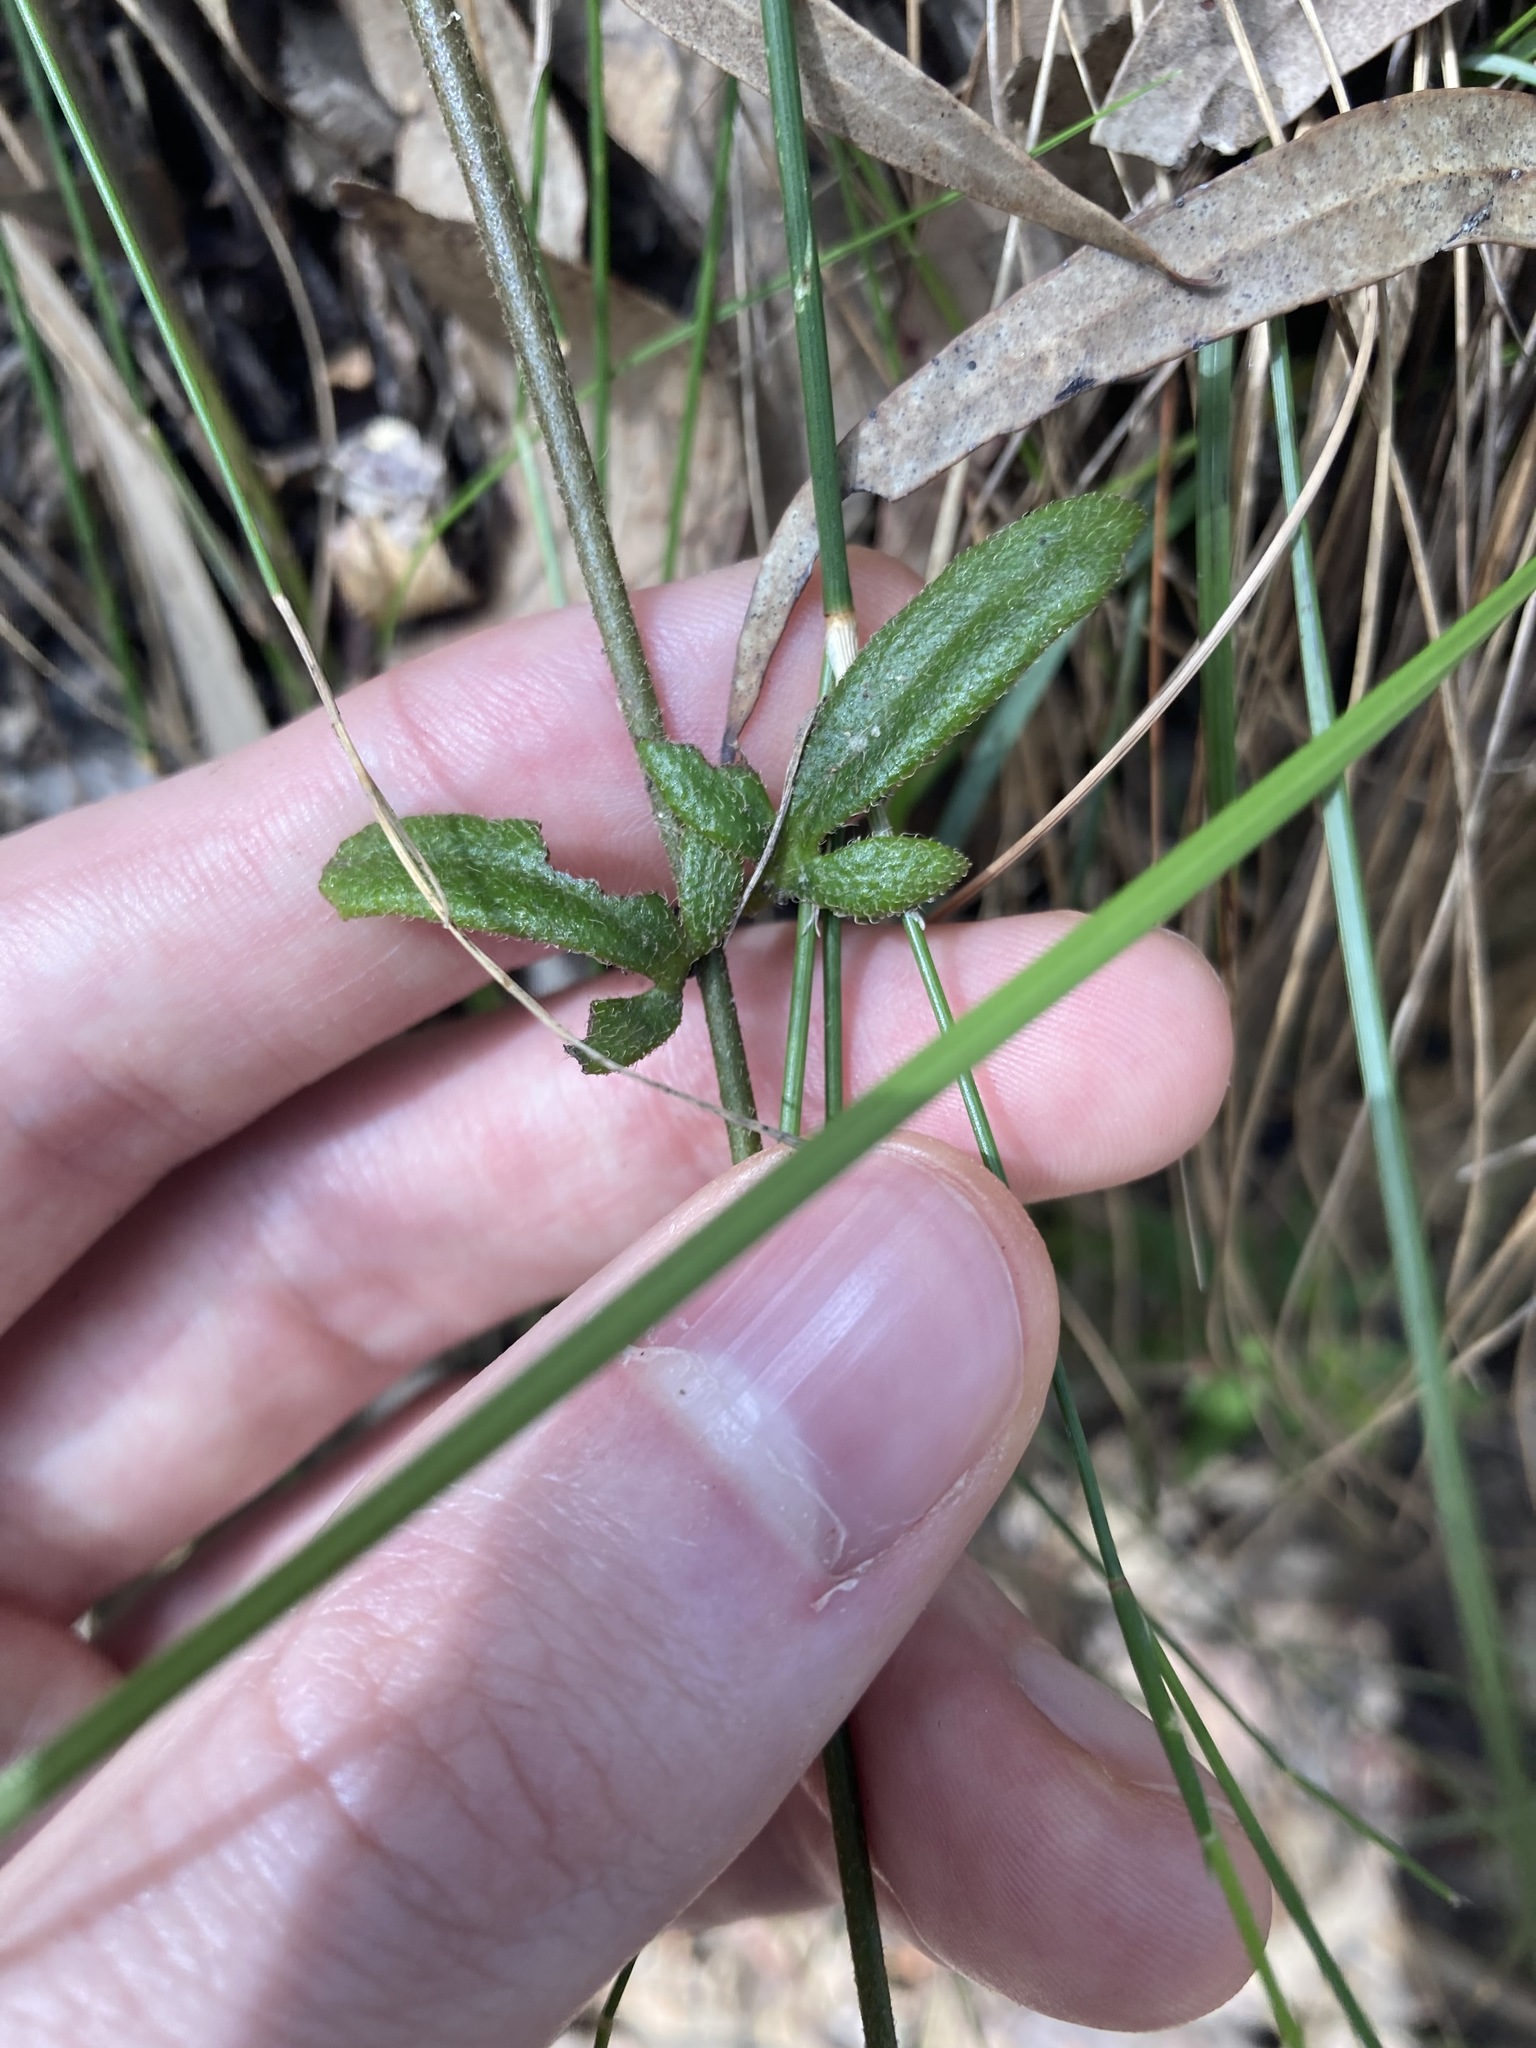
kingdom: Plantae
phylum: Tracheophyta
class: Magnoliopsida
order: Asterales
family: Goodeniaceae
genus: Goodenia
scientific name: Goodenia heterophylla
